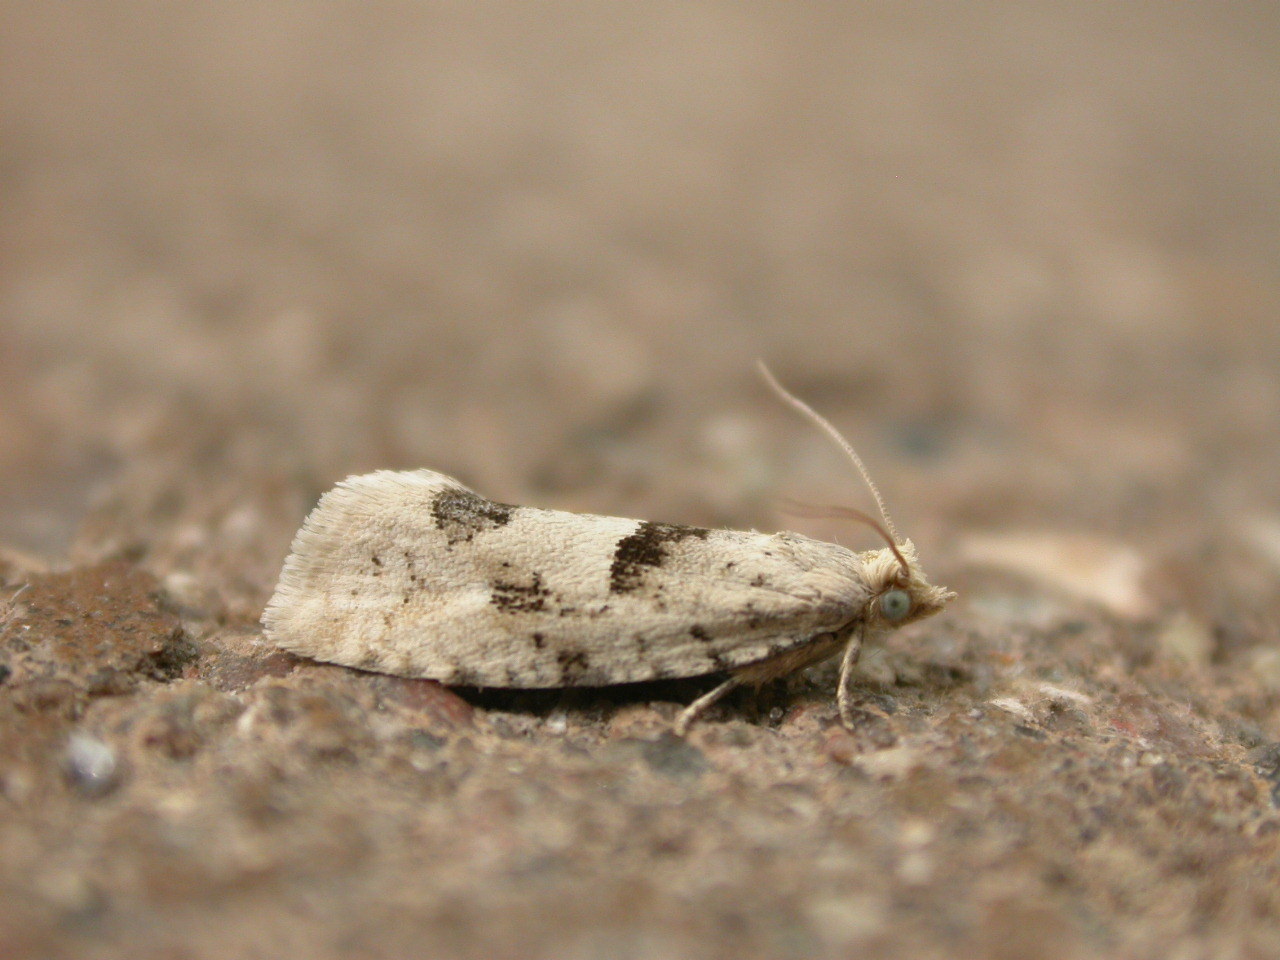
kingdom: Animalia
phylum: Arthropoda
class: Insecta
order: Lepidoptera
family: Tortricidae
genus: Epinotia
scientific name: Epinotia bilunana
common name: Crescent bell
